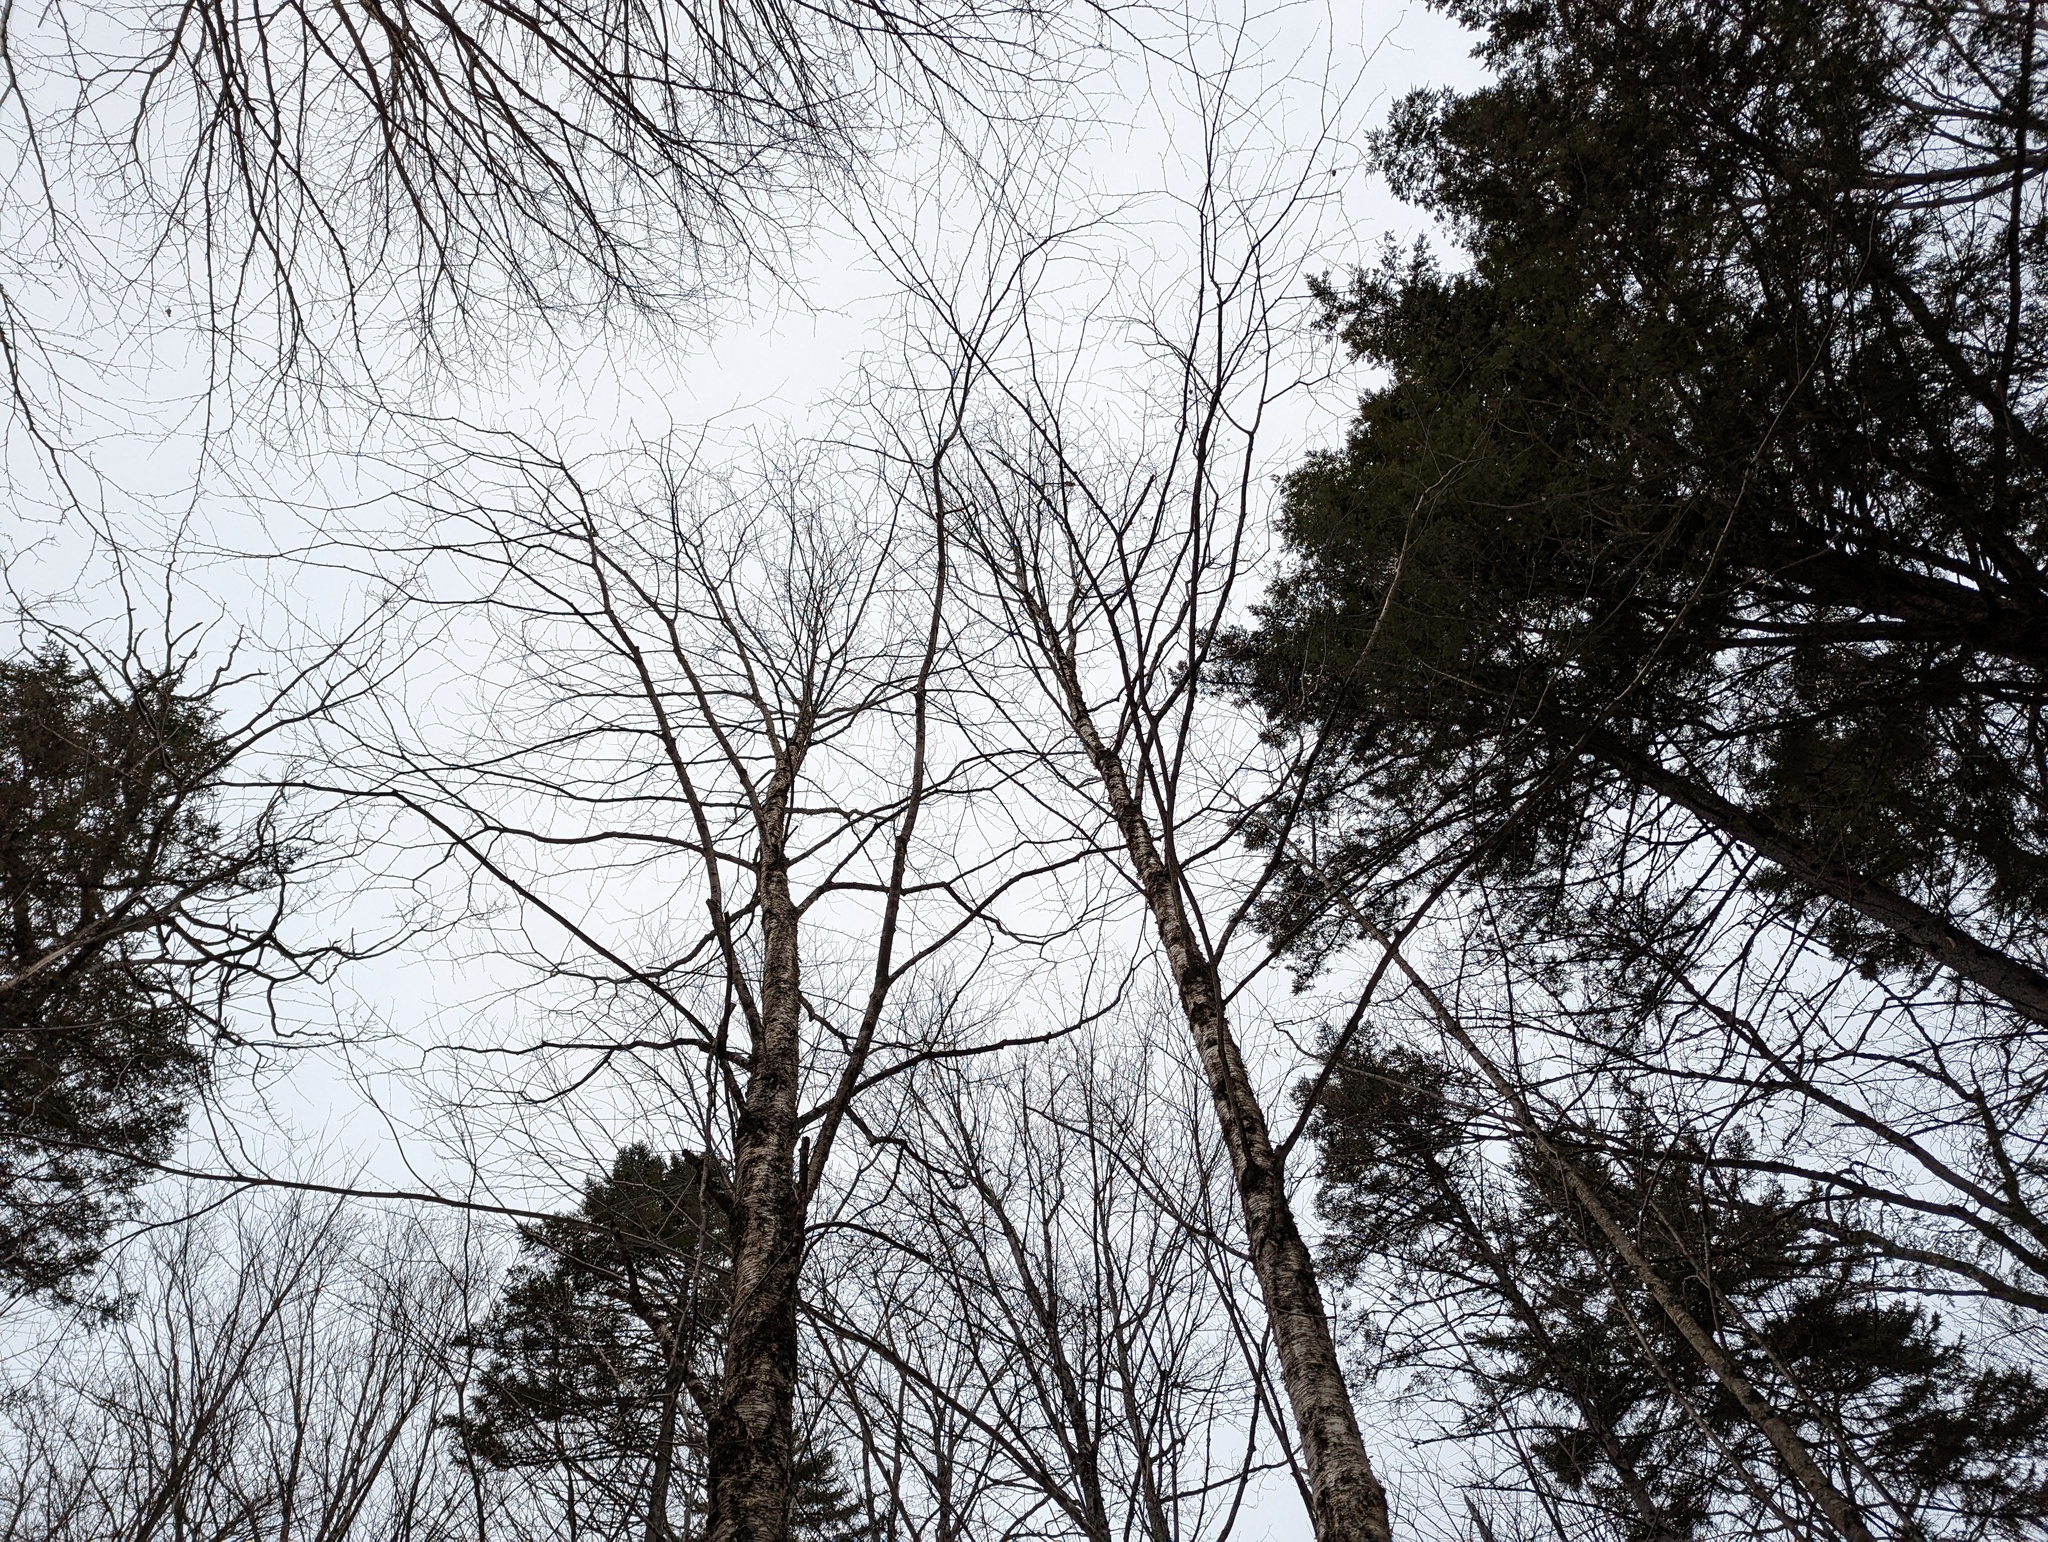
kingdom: Plantae
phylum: Tracheophyta
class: Magnoliopsida
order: Fagales
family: Betulaceae
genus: Betula
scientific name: Betula alleghaniensis
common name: Yellow birch
